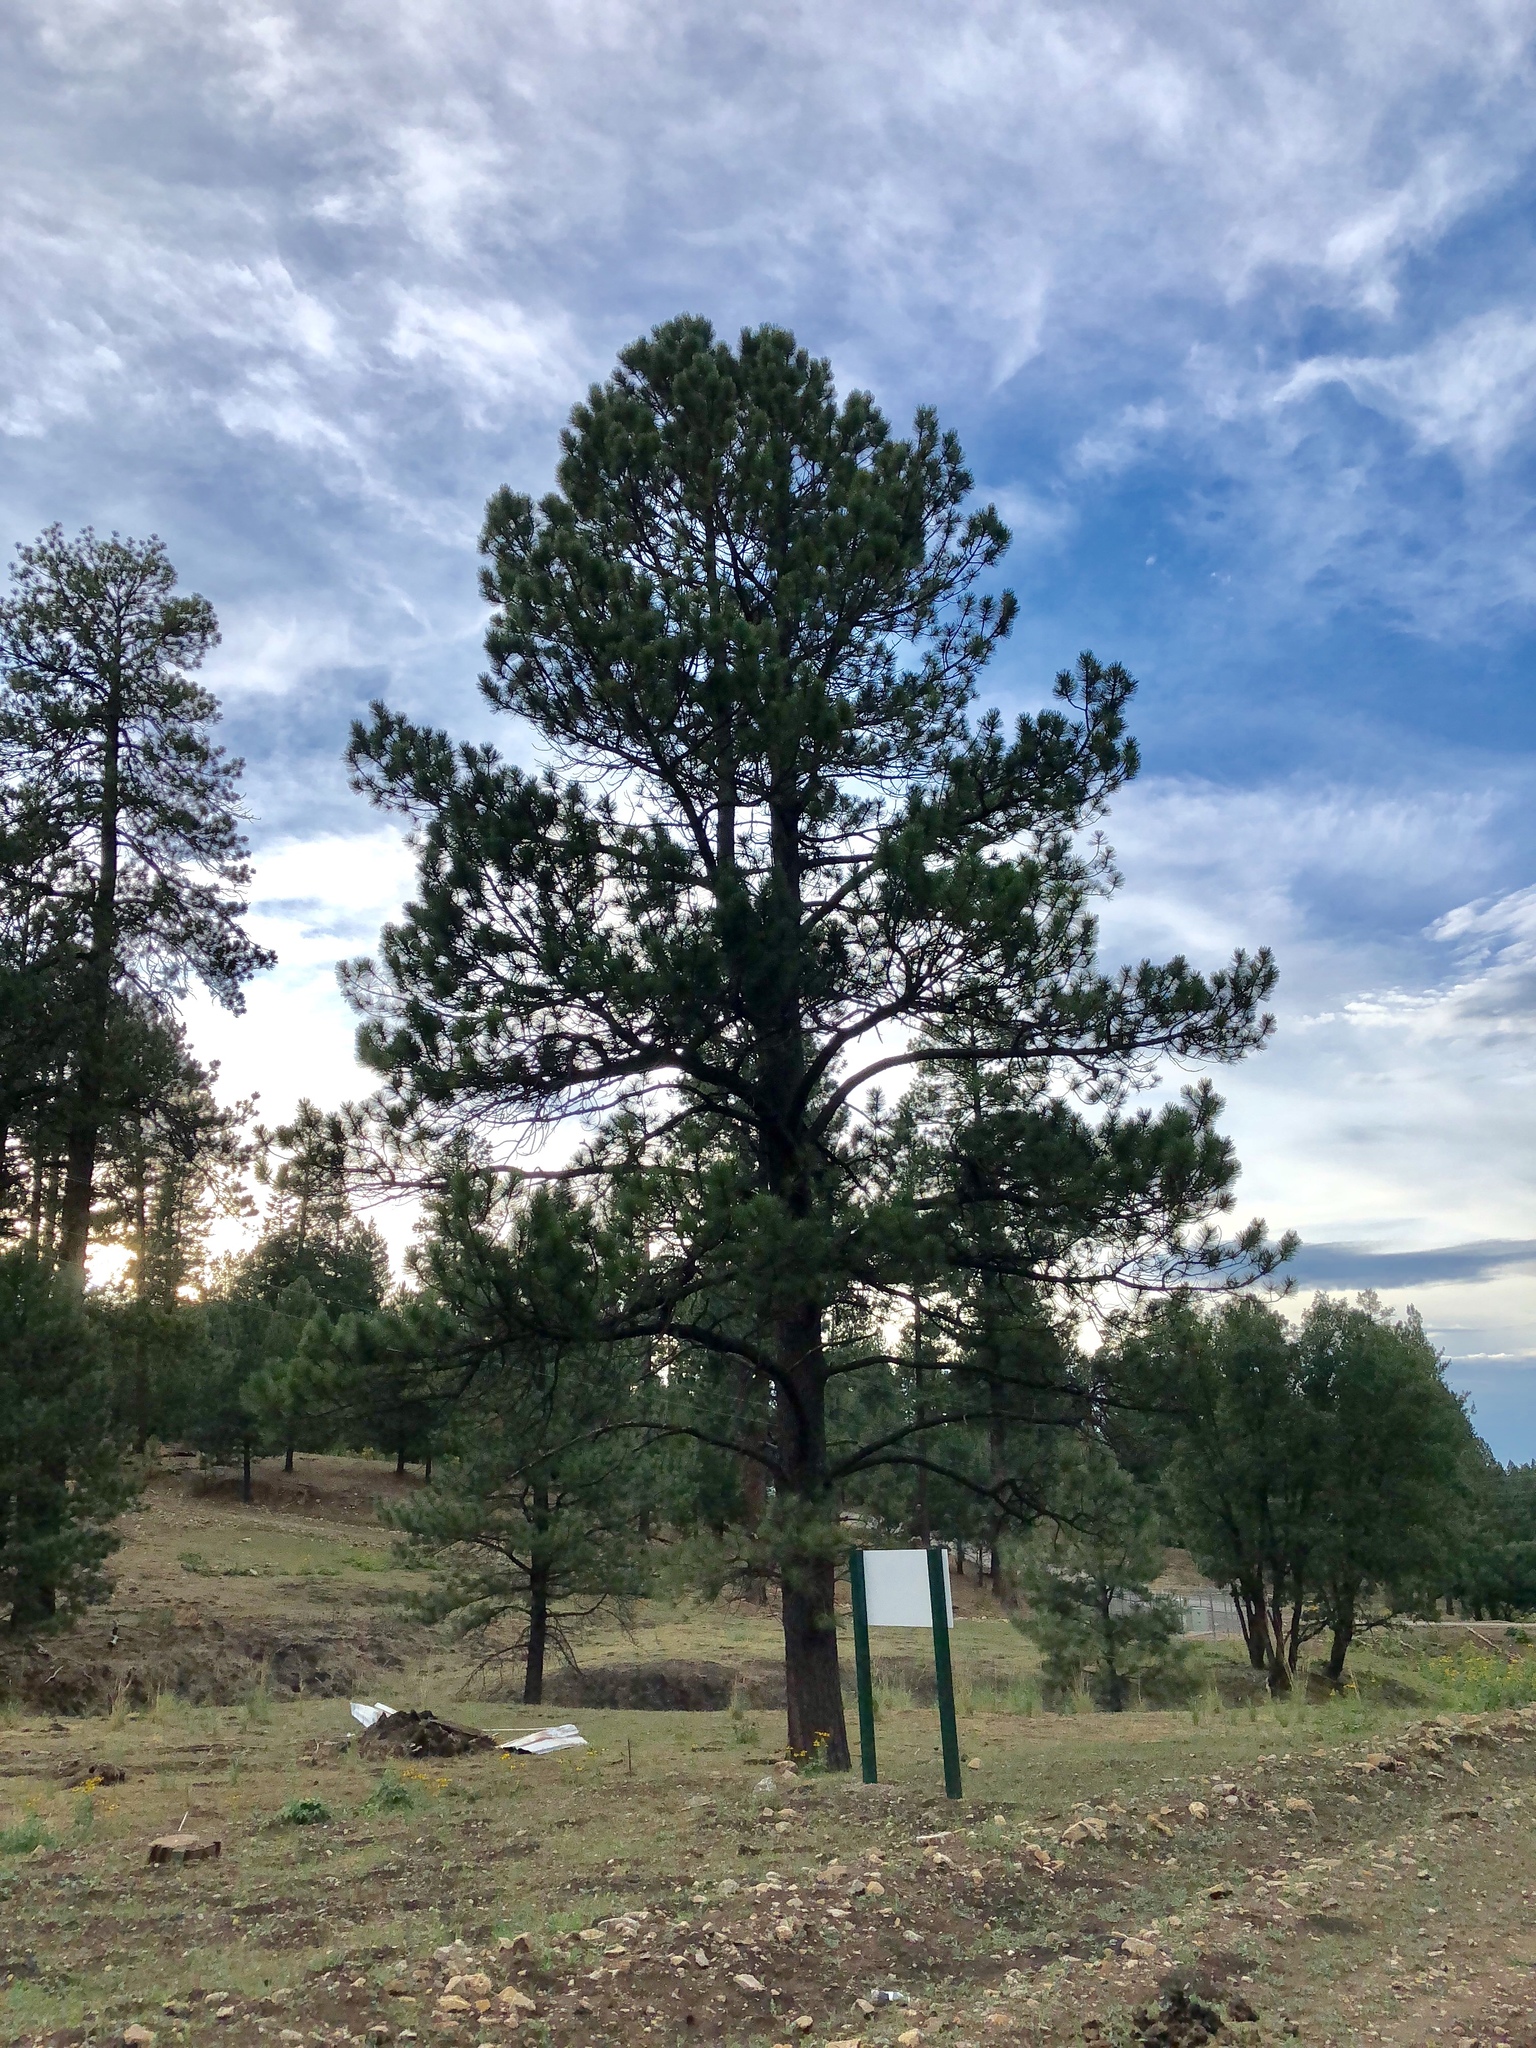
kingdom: Plantae
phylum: Tracheophyta
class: Pinopsida
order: Pinales
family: Pinaceae
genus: Pinus
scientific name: Pinus ponderosa
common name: Western yellow-pine
